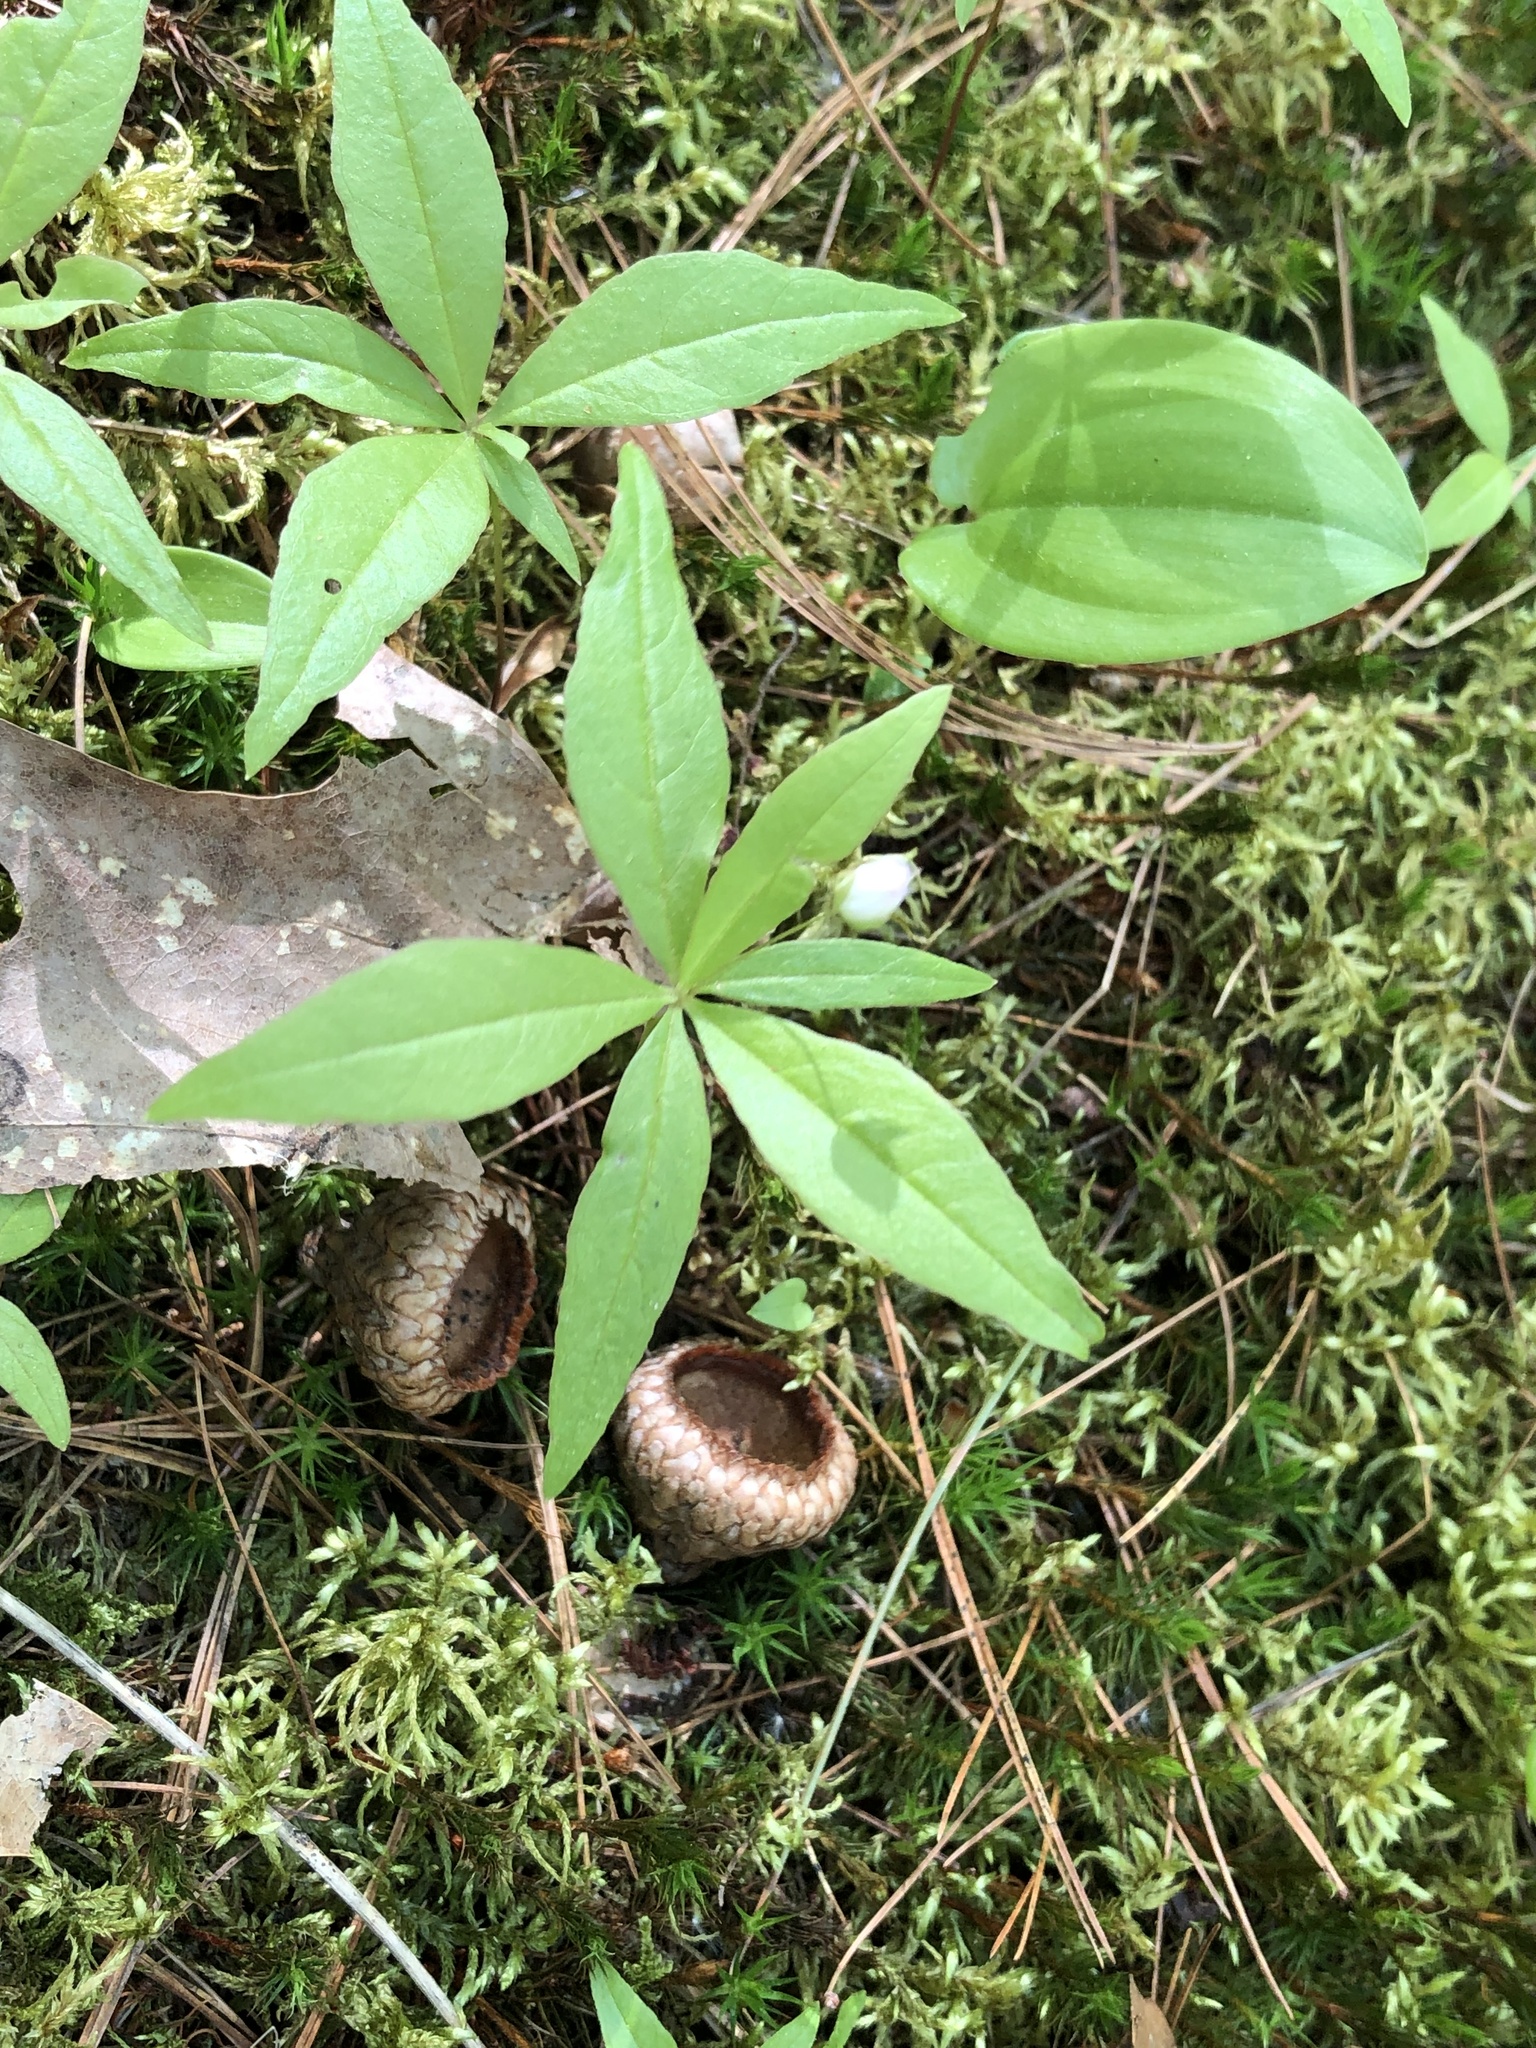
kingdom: Plantae
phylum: Tracheophyta
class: Magnoliopsida
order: Ericales
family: Primulaceae
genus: Lysimachia
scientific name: Lysimachia borealis
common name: American starflower
